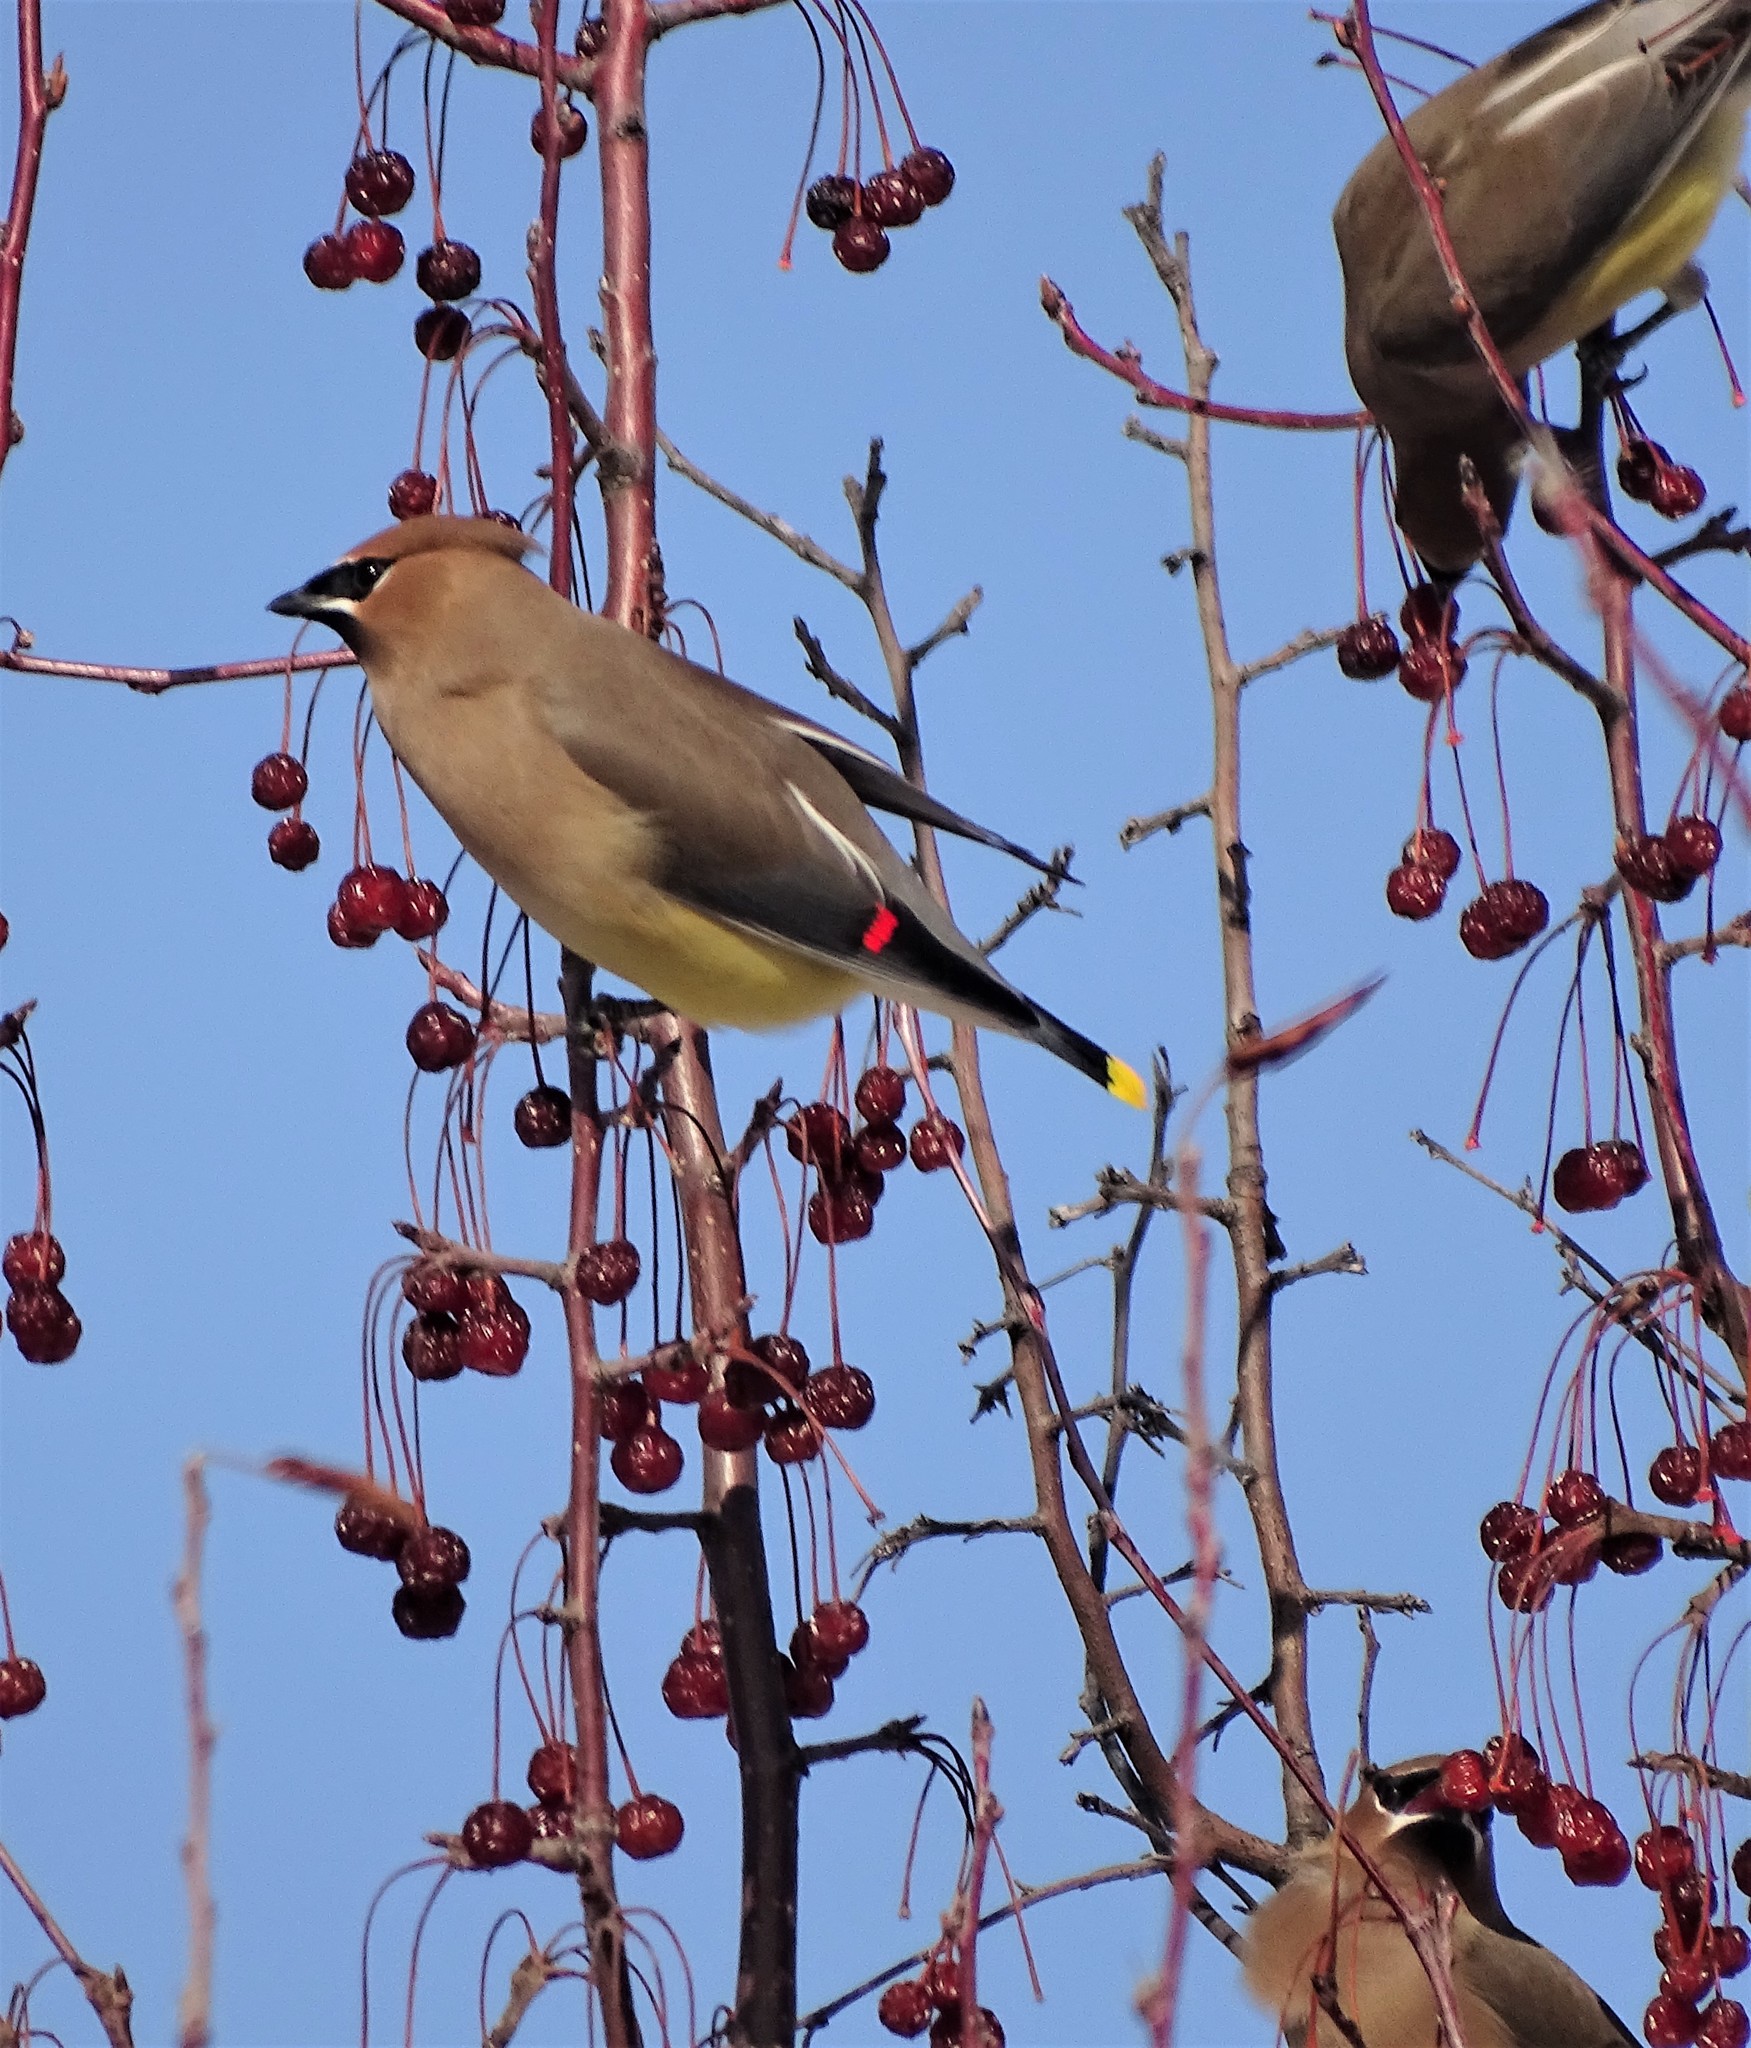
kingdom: Animalia
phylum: Chordata
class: Aves
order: Passeriformes
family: Bombycillidae
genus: Bombycilla
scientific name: Bombycilla cedrorum
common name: Cedar waxwing
